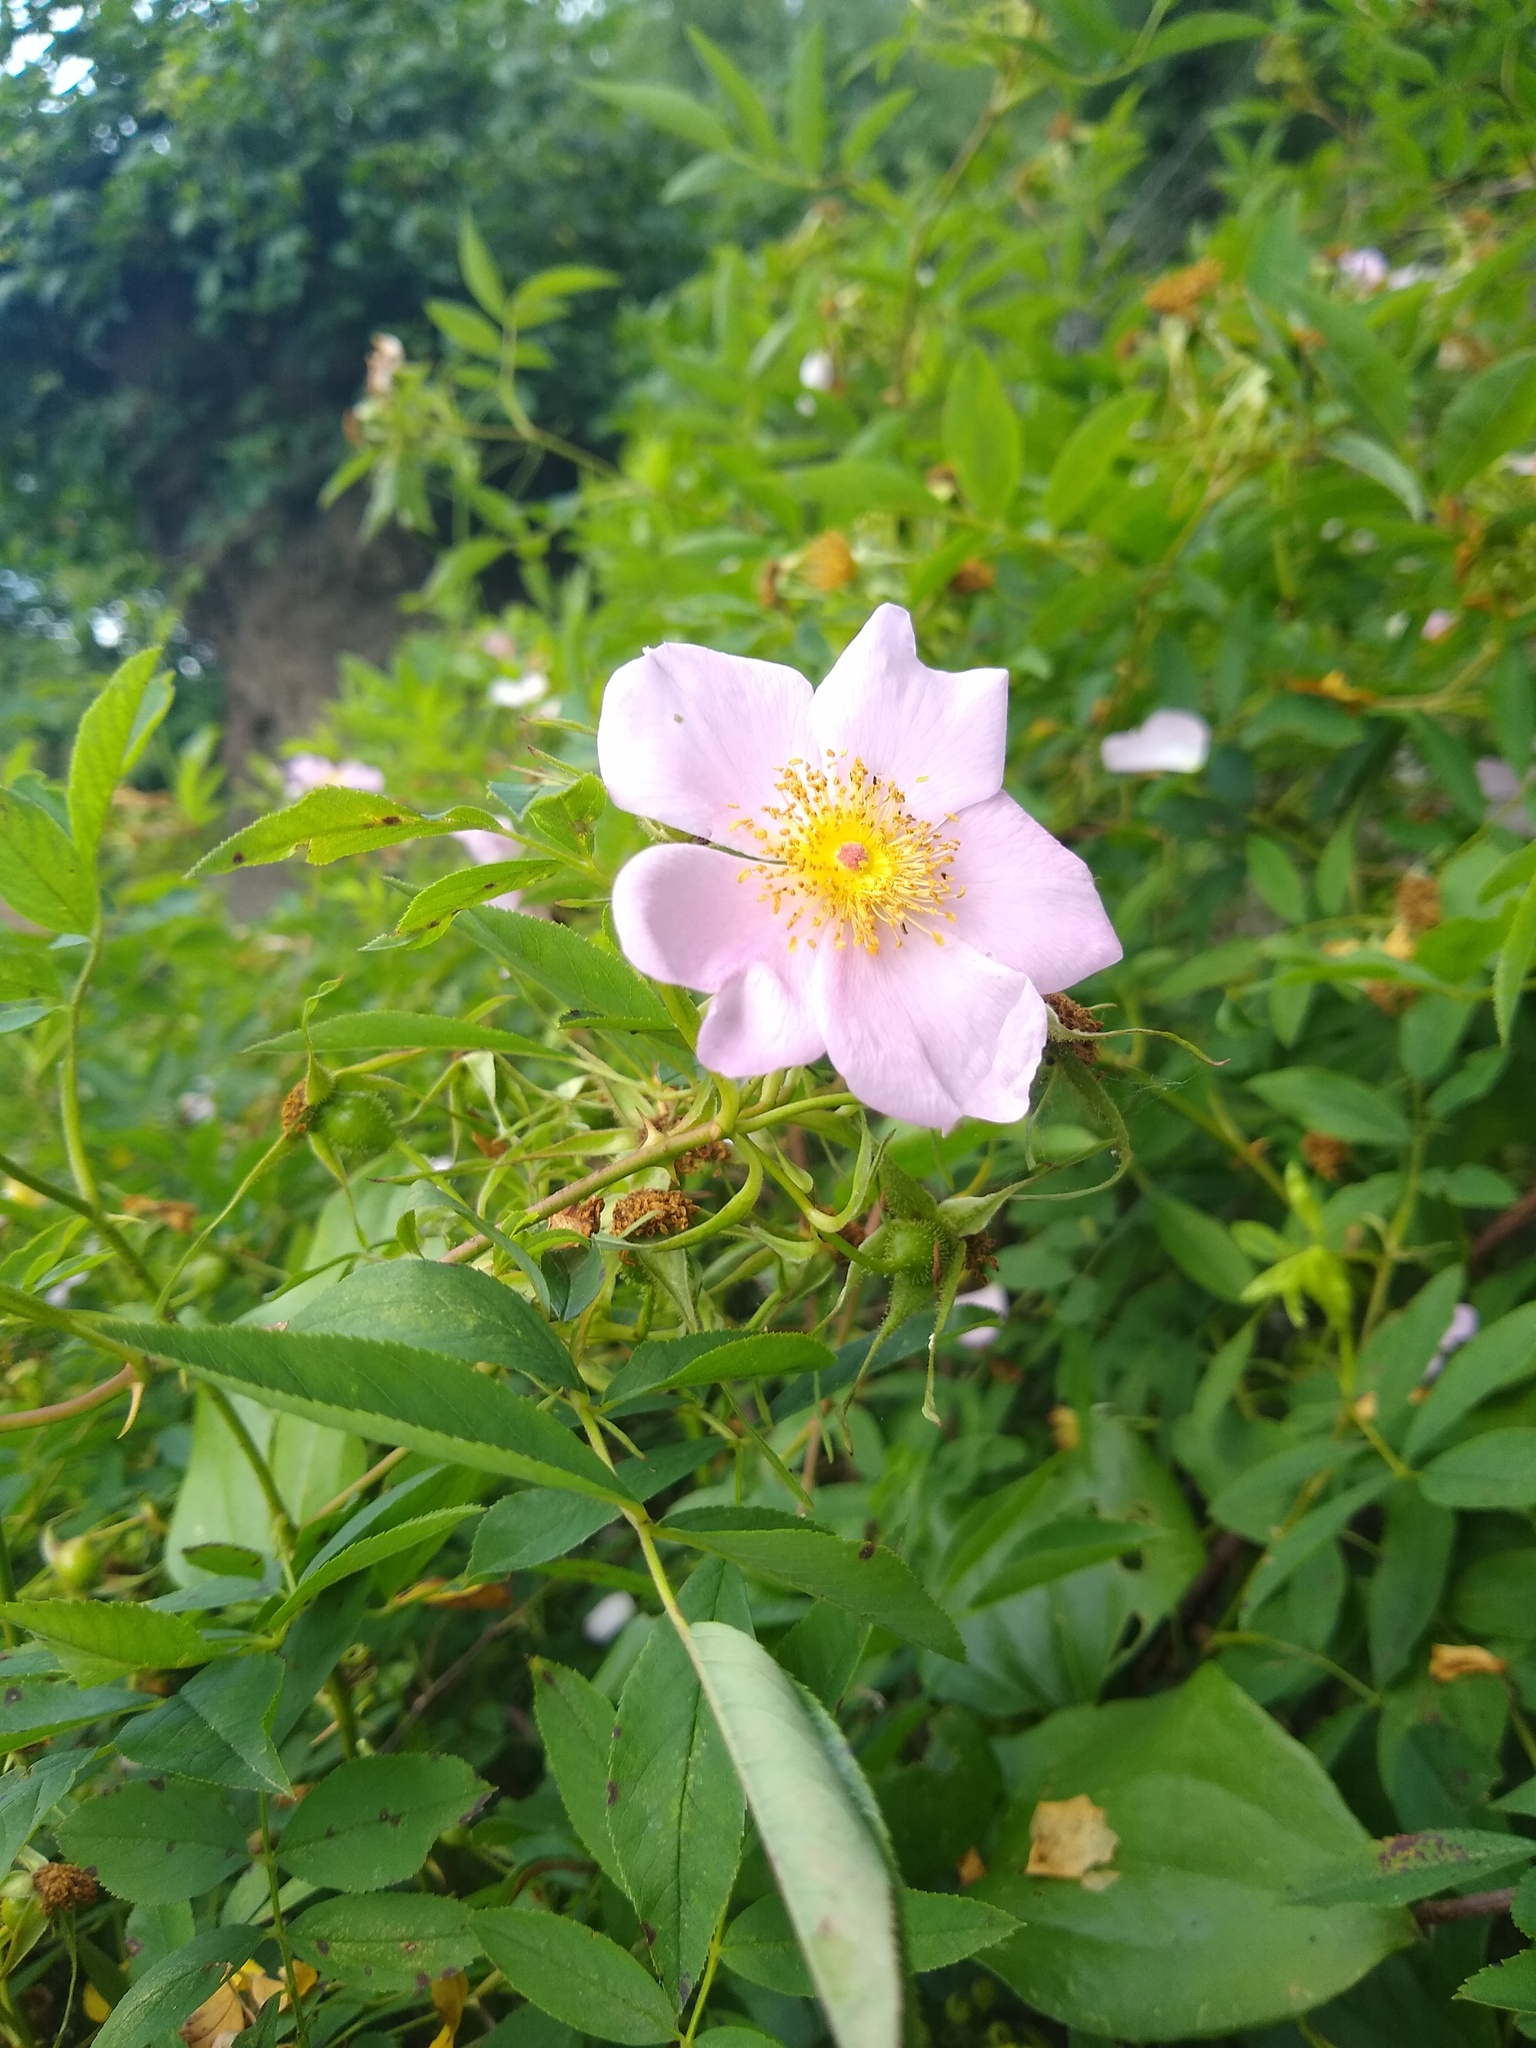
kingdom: Plantae
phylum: Tracheophyta
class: Magnoliopsida
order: Rosales
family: Rosaceae
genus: Rosa
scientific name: Rosa palustris
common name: Swamp rose
